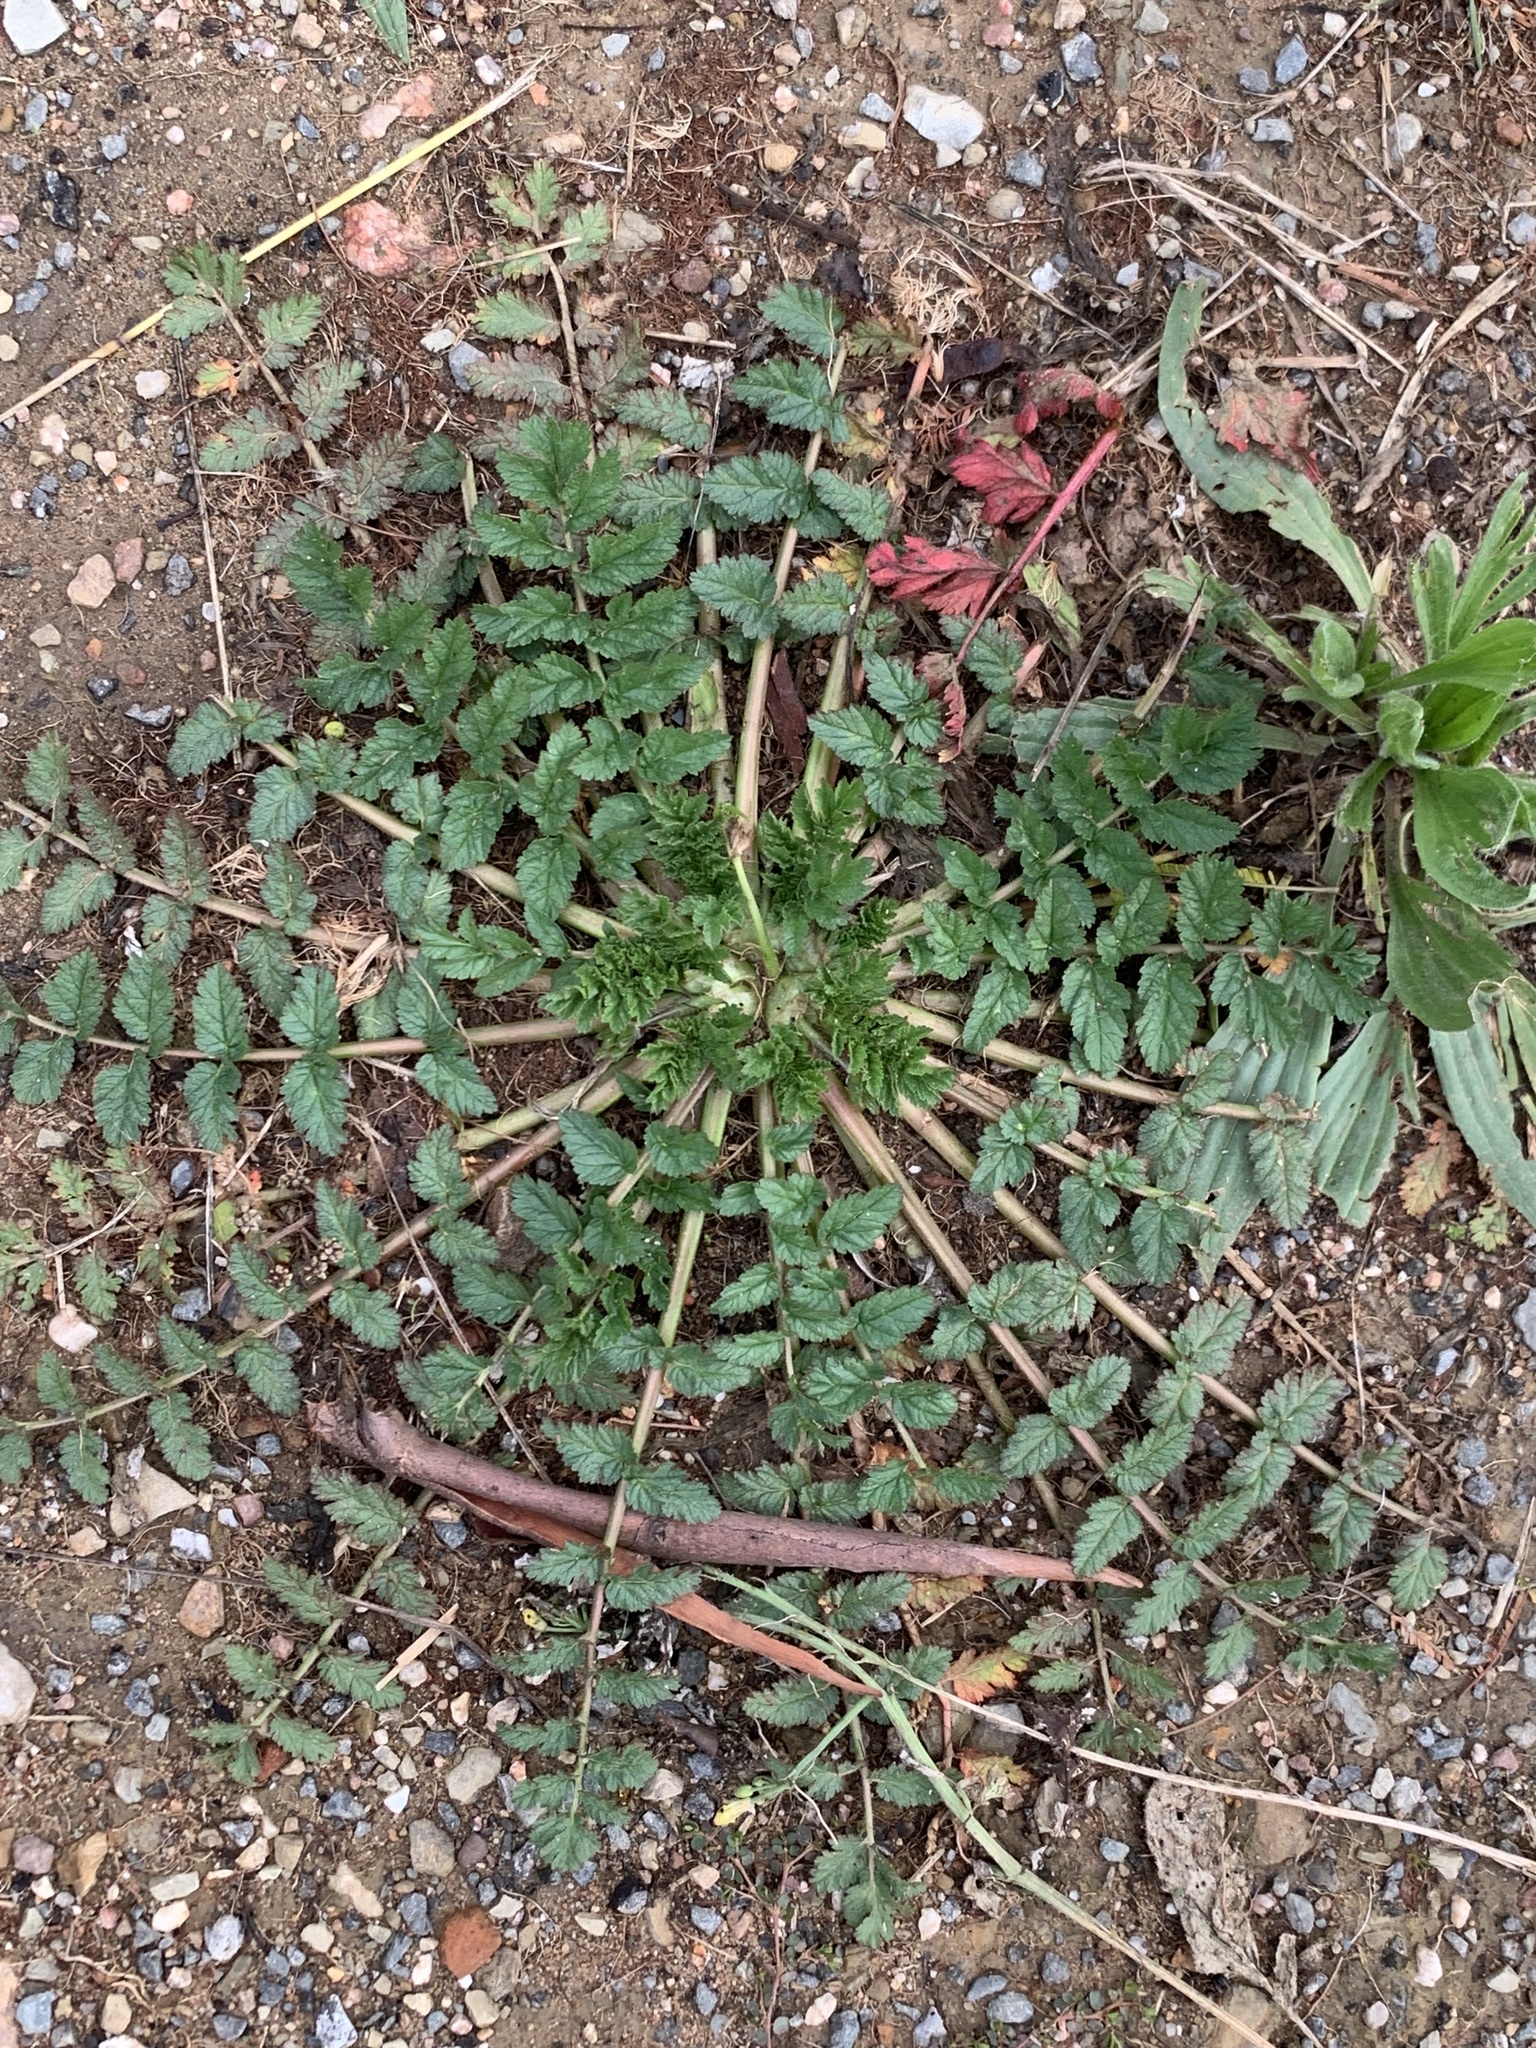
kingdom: Plantae
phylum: Tracheophyta
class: Magnoliopsida
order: Geraniales
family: Geraniaceae
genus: Erodium
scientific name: Erodium moschatum
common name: Musk stork's-bill
